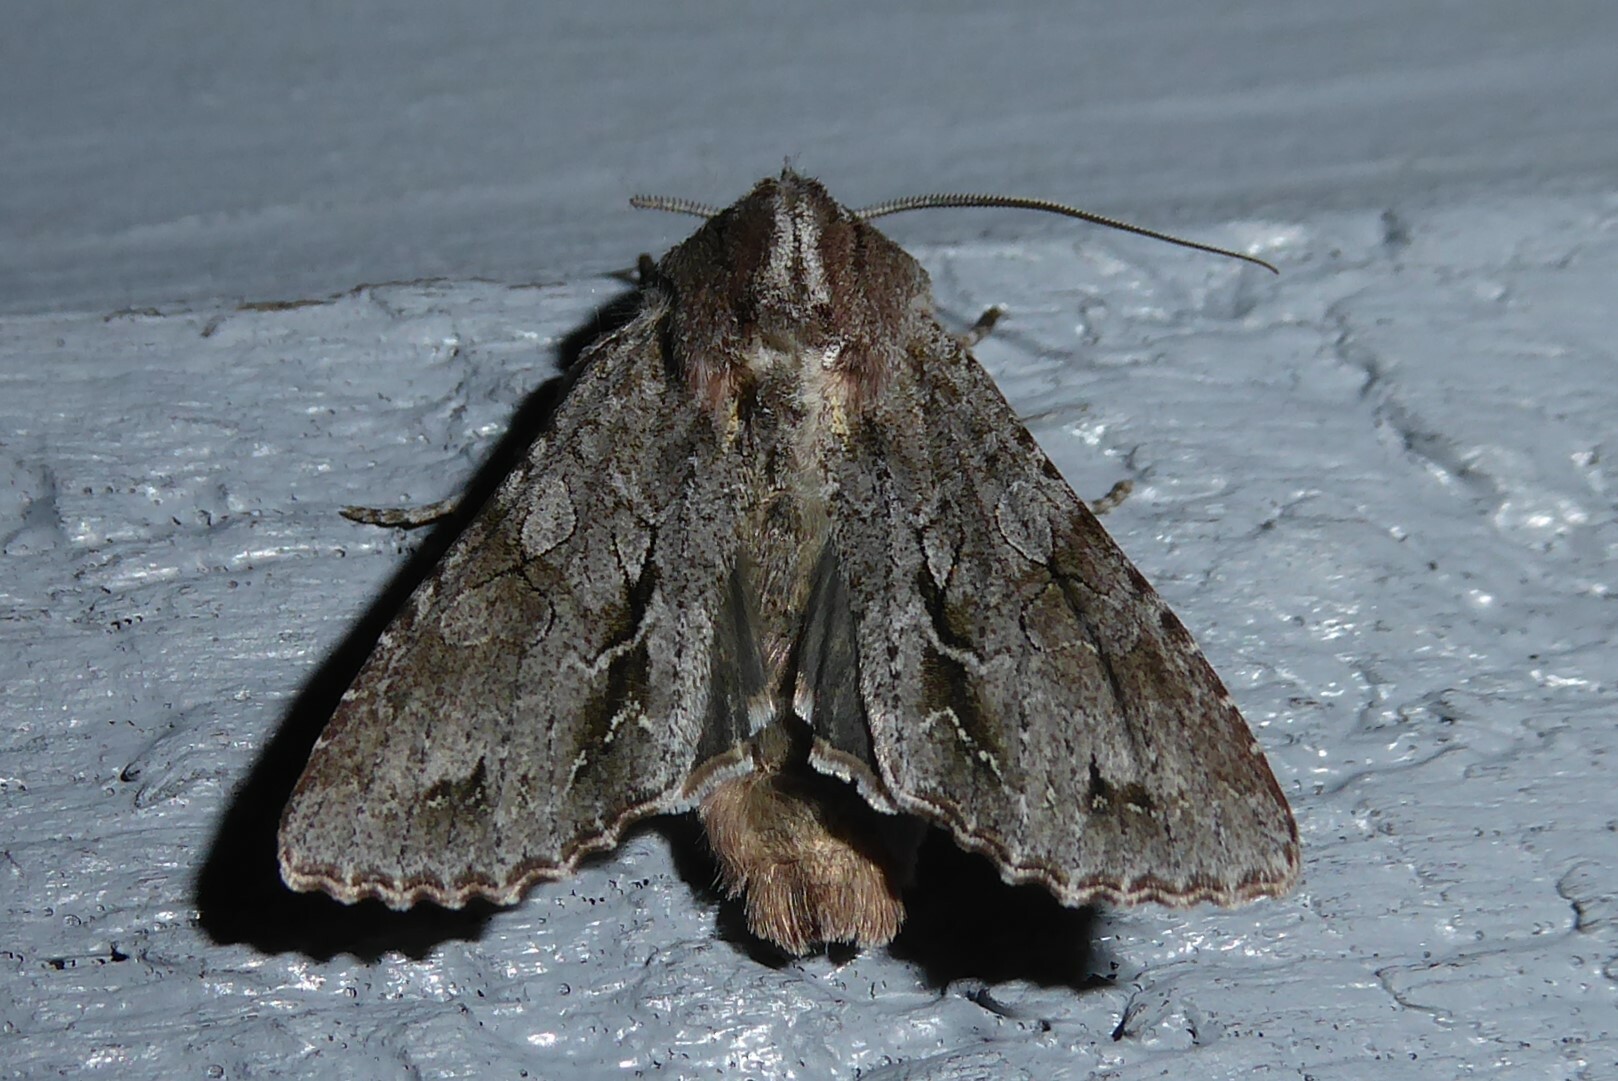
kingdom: Animalia
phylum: Arthropoda
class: Insecta
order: Lepidoptera
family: Noctuidae
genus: Ichneutica
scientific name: Ichneutica
